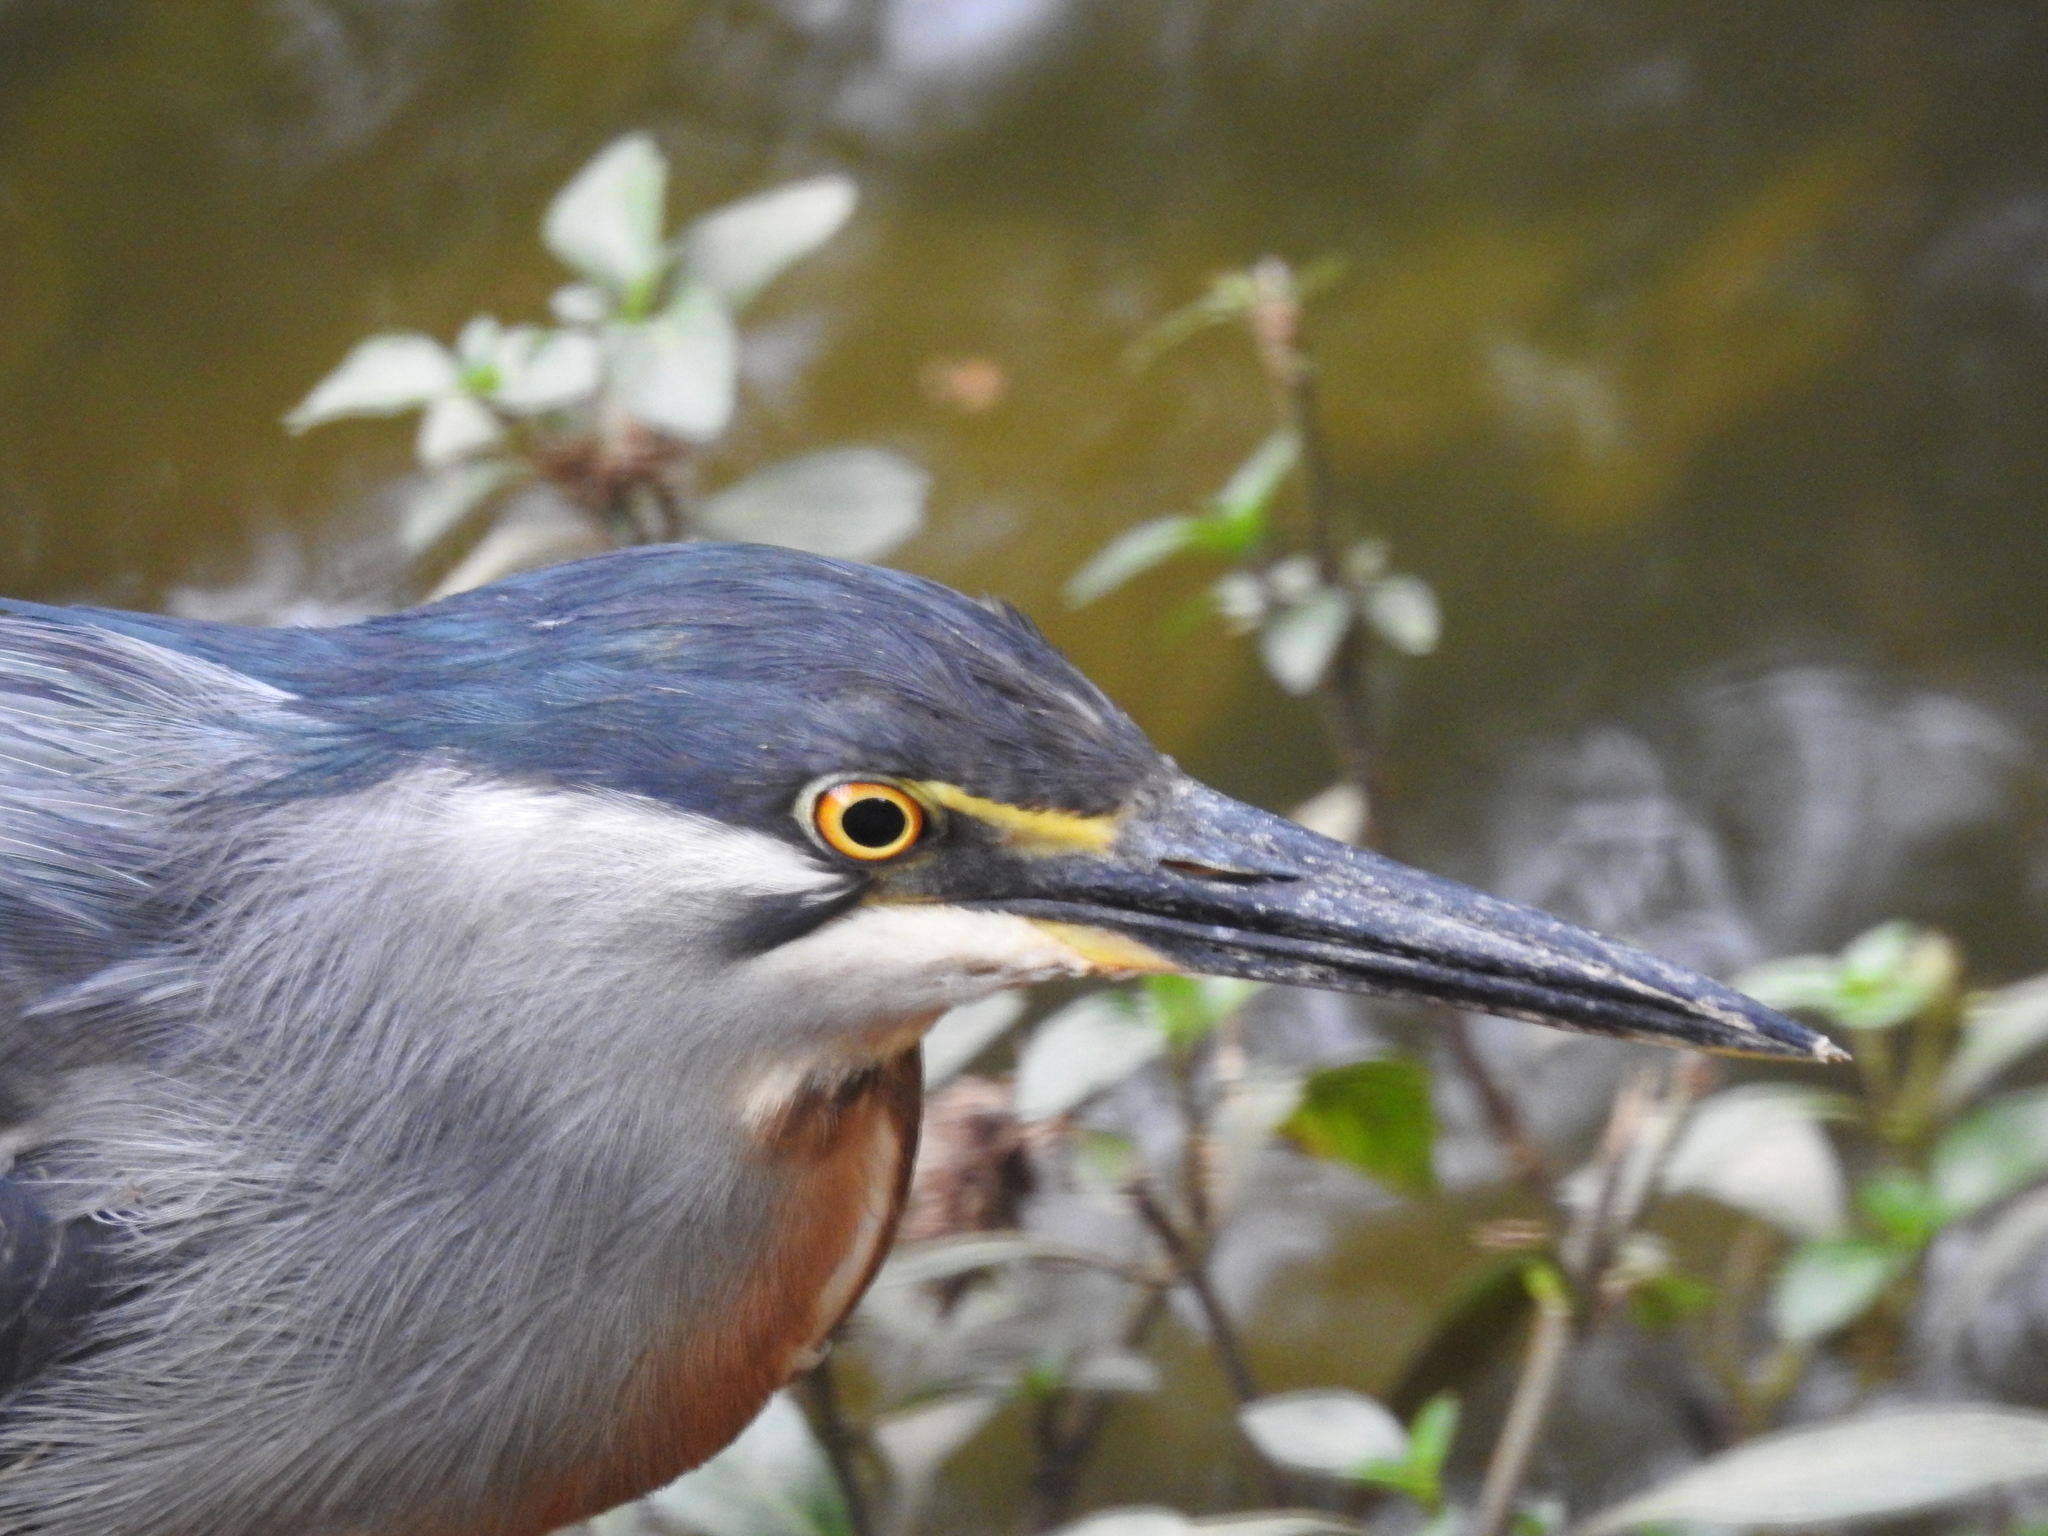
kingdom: Animalia
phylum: Chordata
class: Aves
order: Pelecaniformes
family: Ardeidae
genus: Butorides
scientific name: Butorides striata
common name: Striated heron
